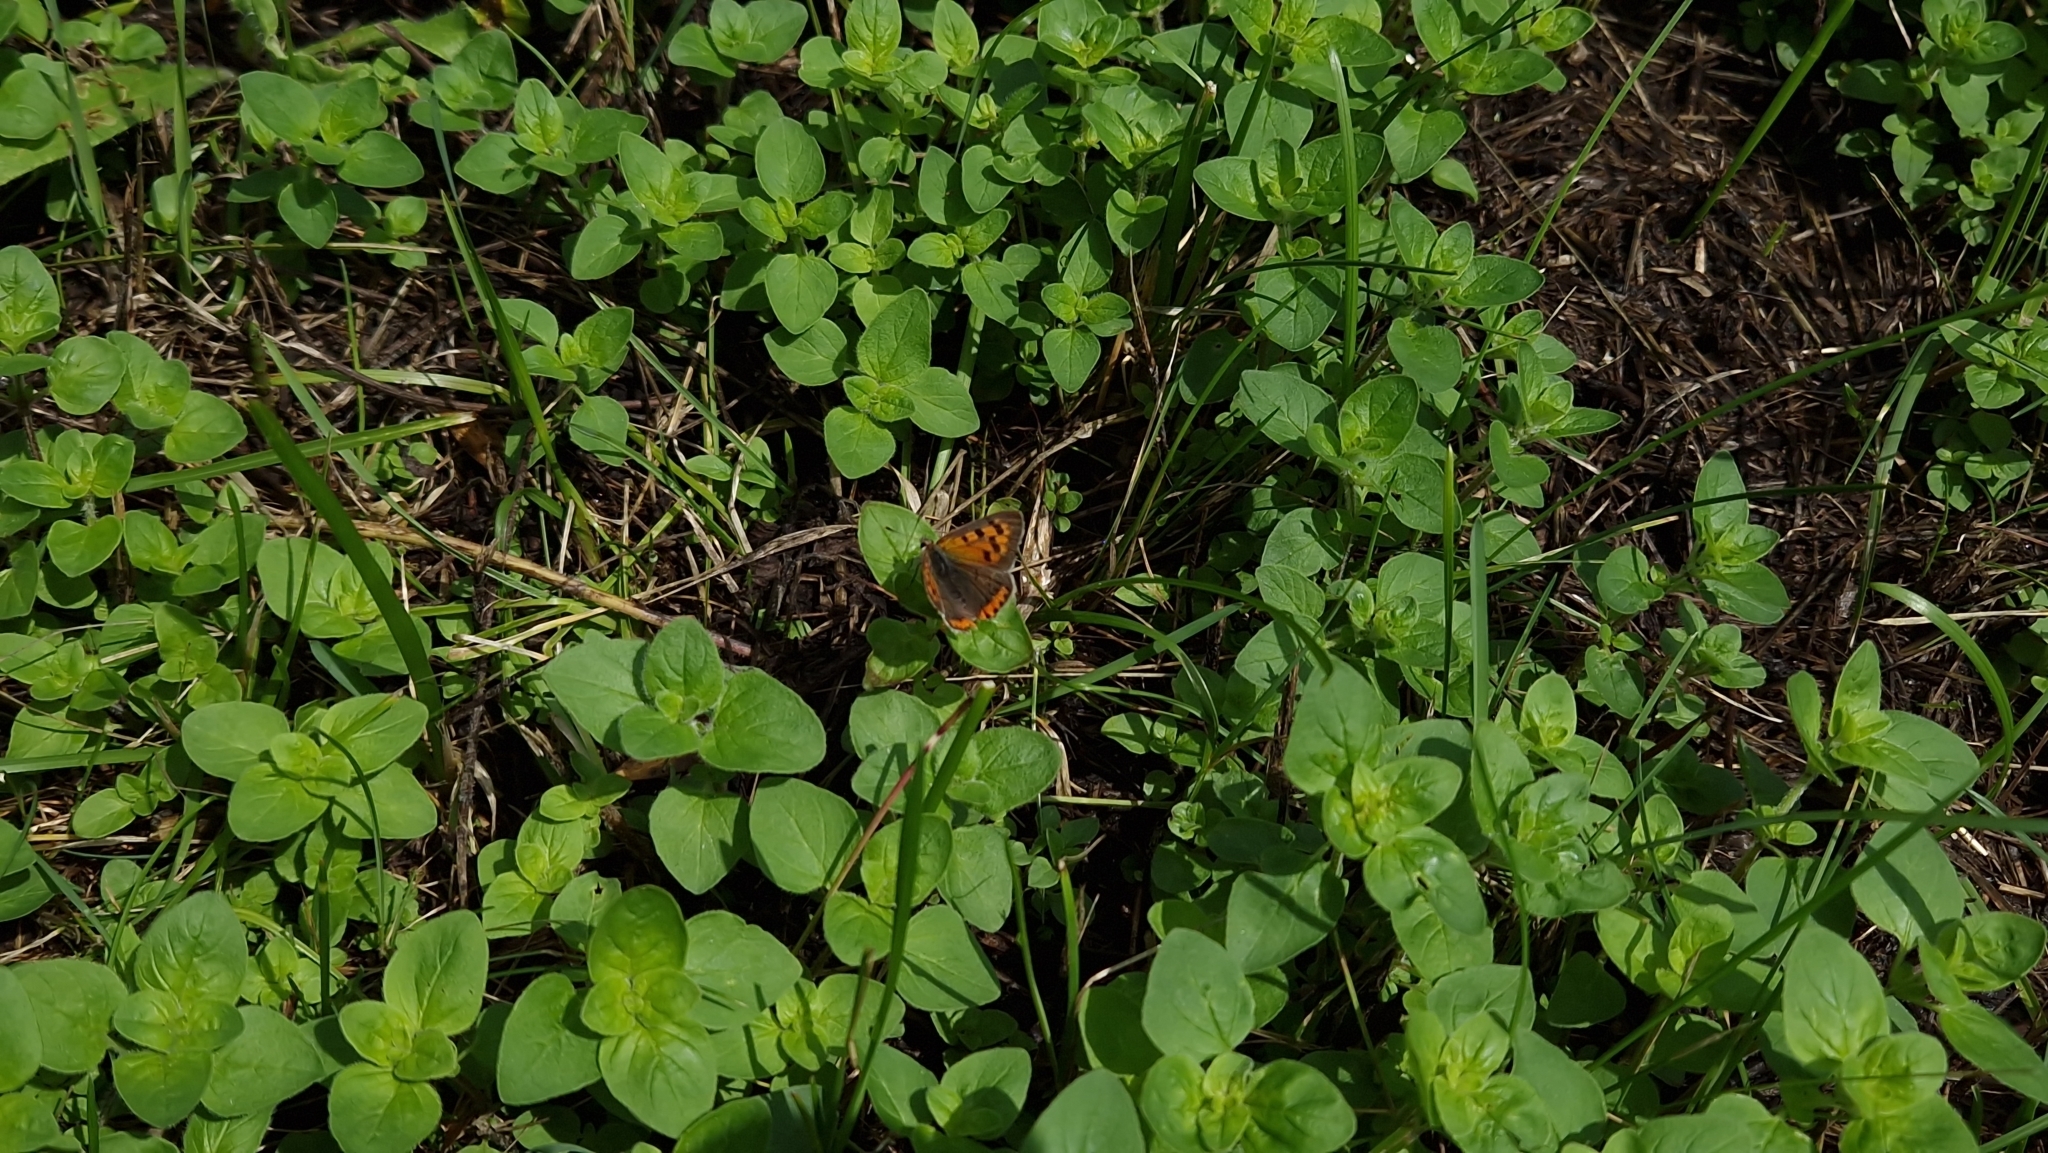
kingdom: Animalia
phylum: Arthropoda
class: Insecta
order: Lepidoptera
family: Lycaenidae
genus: Lycaena
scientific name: Lycaena phlaeas
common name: Small copper
